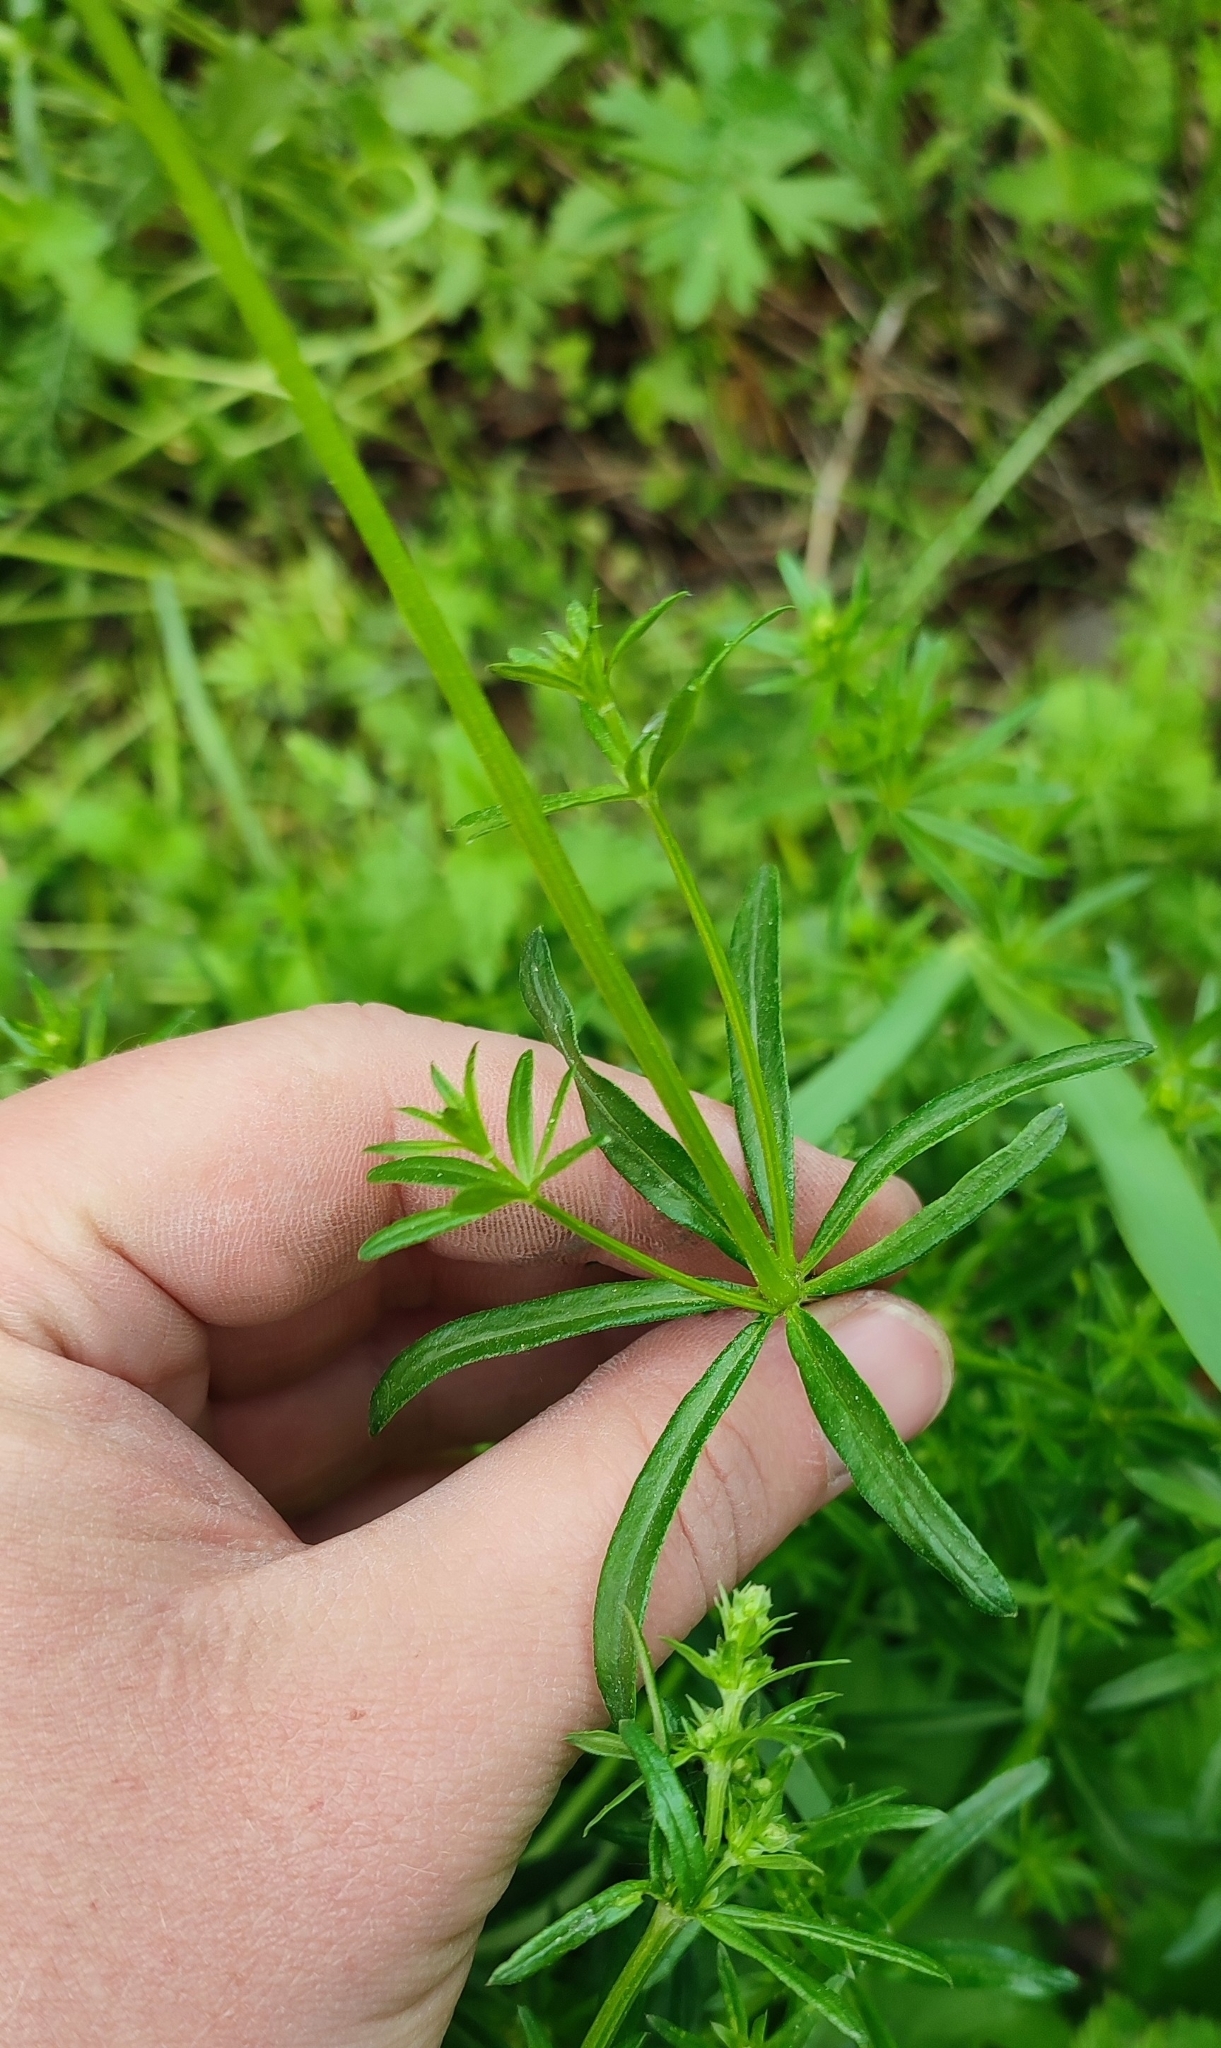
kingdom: Plantae
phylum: Tracheophyta
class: Magnoliopsida
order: Gentianales
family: Rubiaceae
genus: Galium
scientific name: Galium mollugo
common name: Hedge bedstraw
